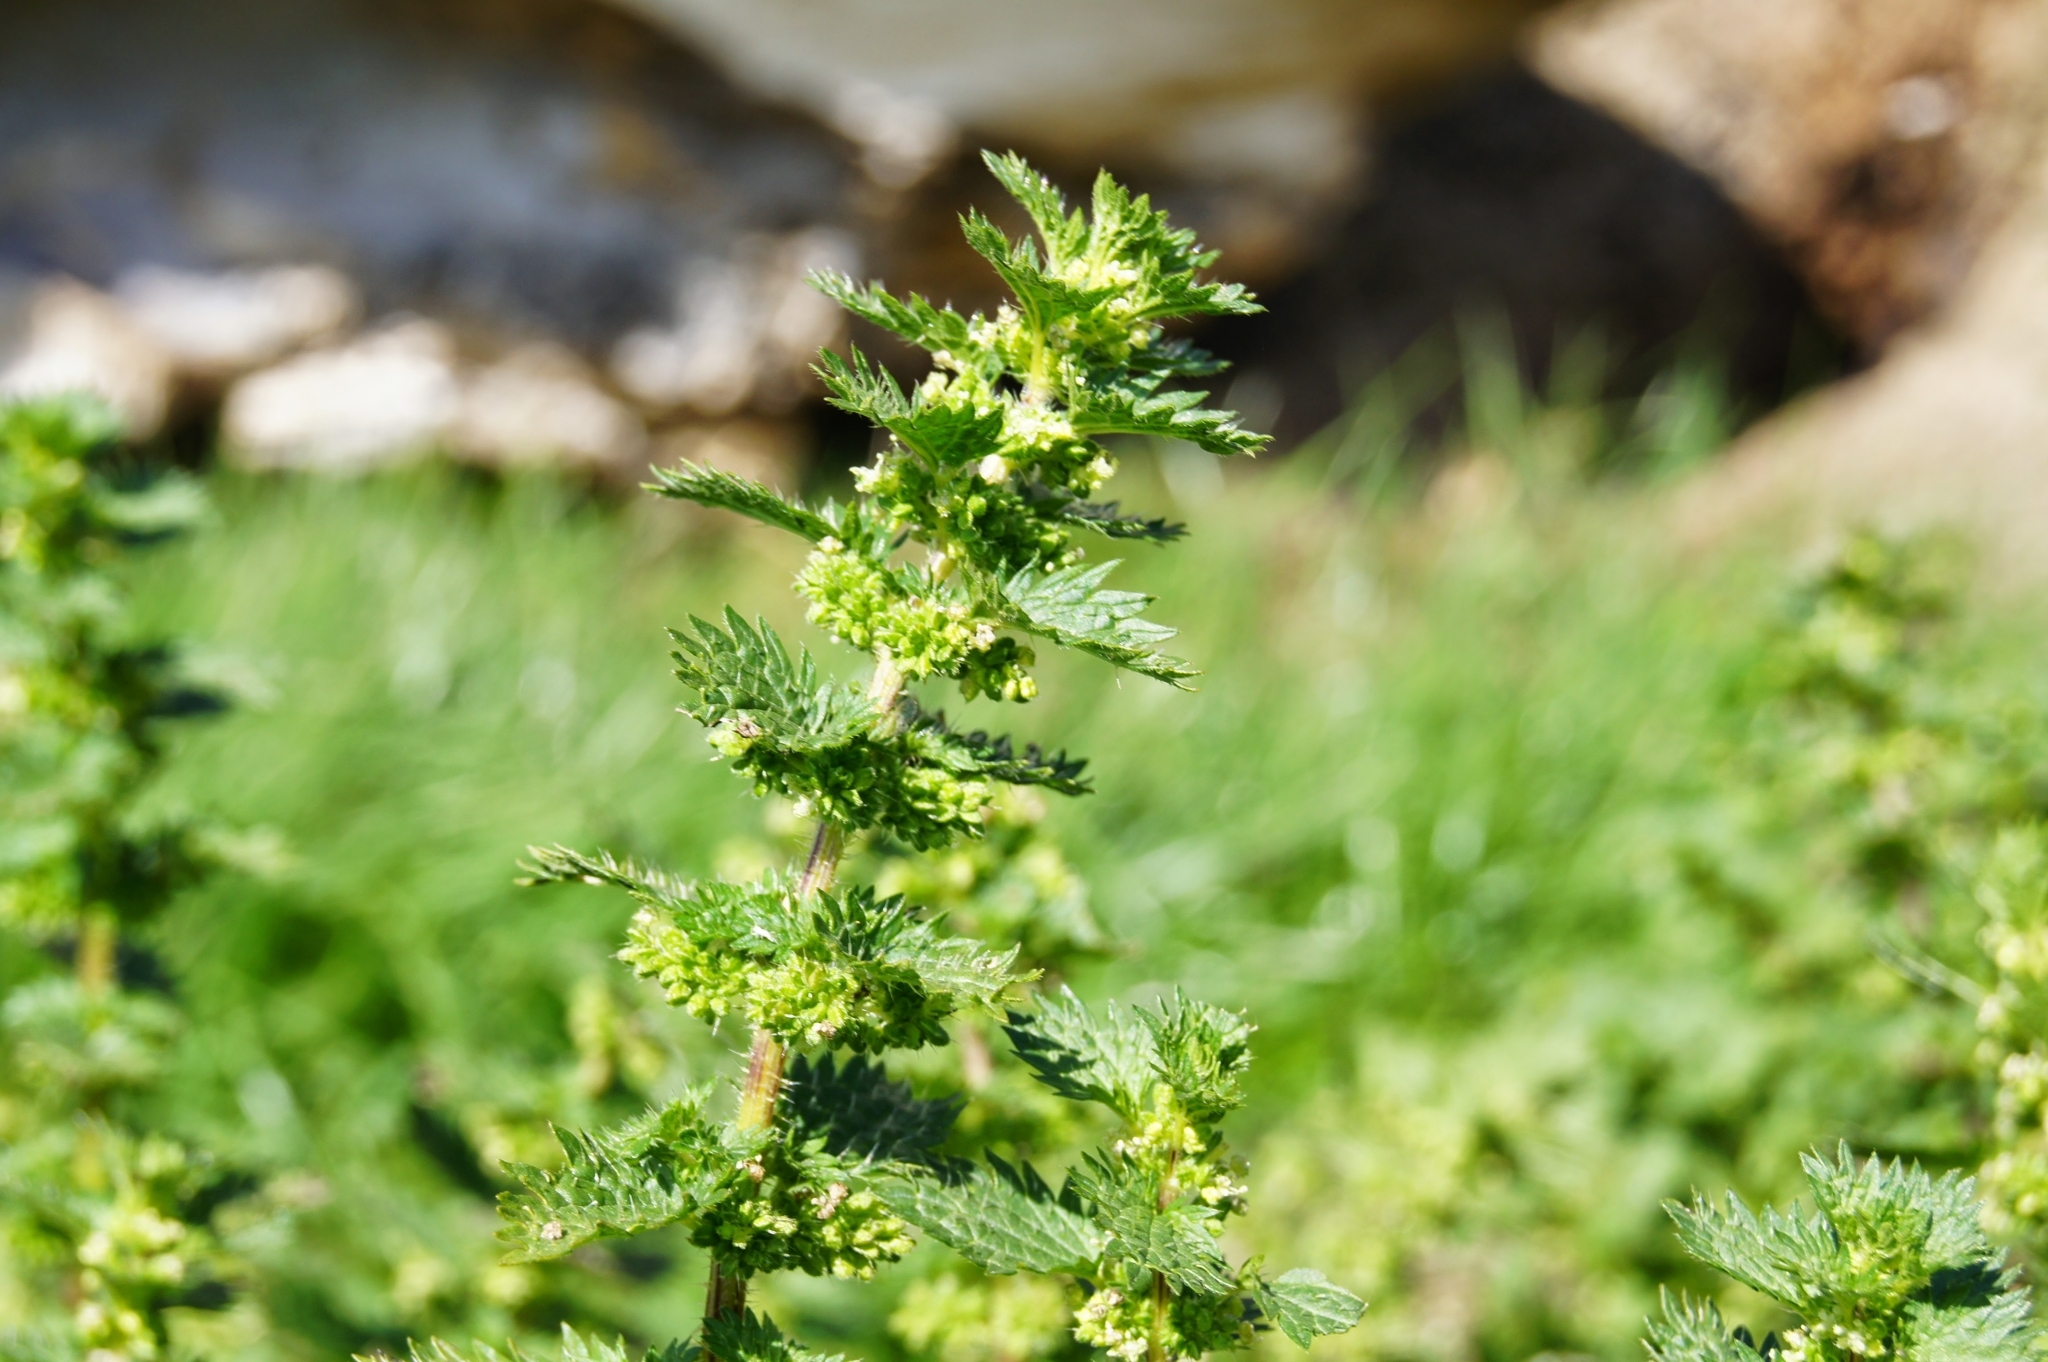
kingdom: Plantae
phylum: Tracheophyta
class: Magnoliopsida
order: Rosales
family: Urticaceae
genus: Urtica
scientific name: Urtica urens
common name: Dwarf nettle
